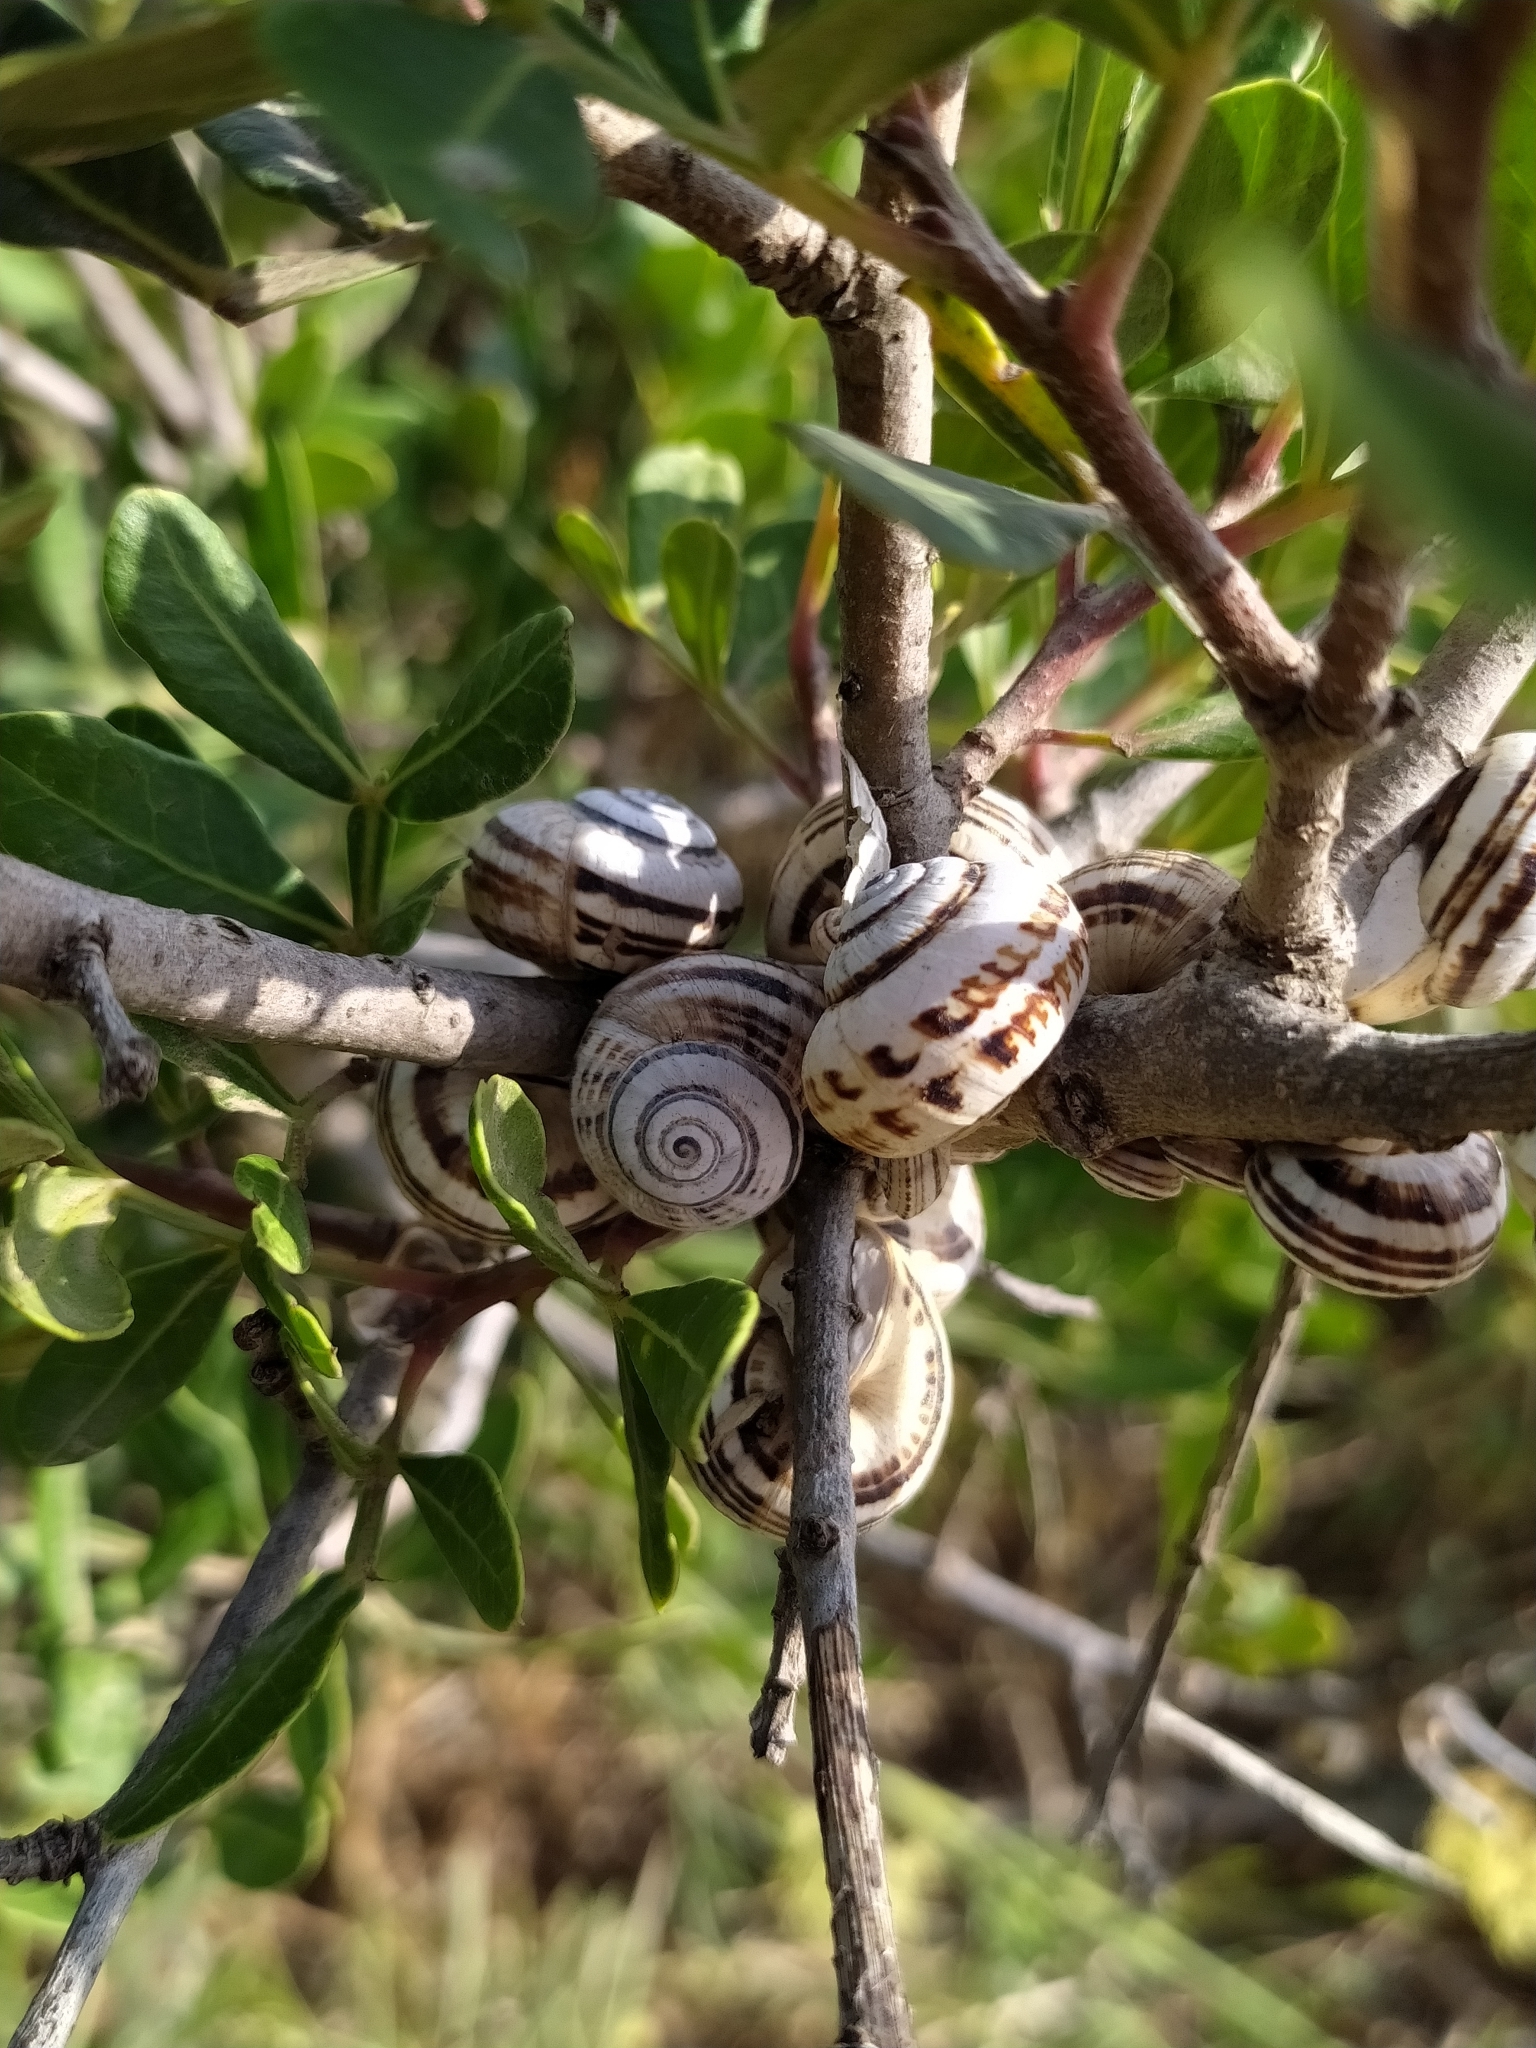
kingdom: Animalia
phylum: Mollusca
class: Gastropoda
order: Stylommatophora
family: Helicidae
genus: Theba
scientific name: Theba pisana
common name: White snail
